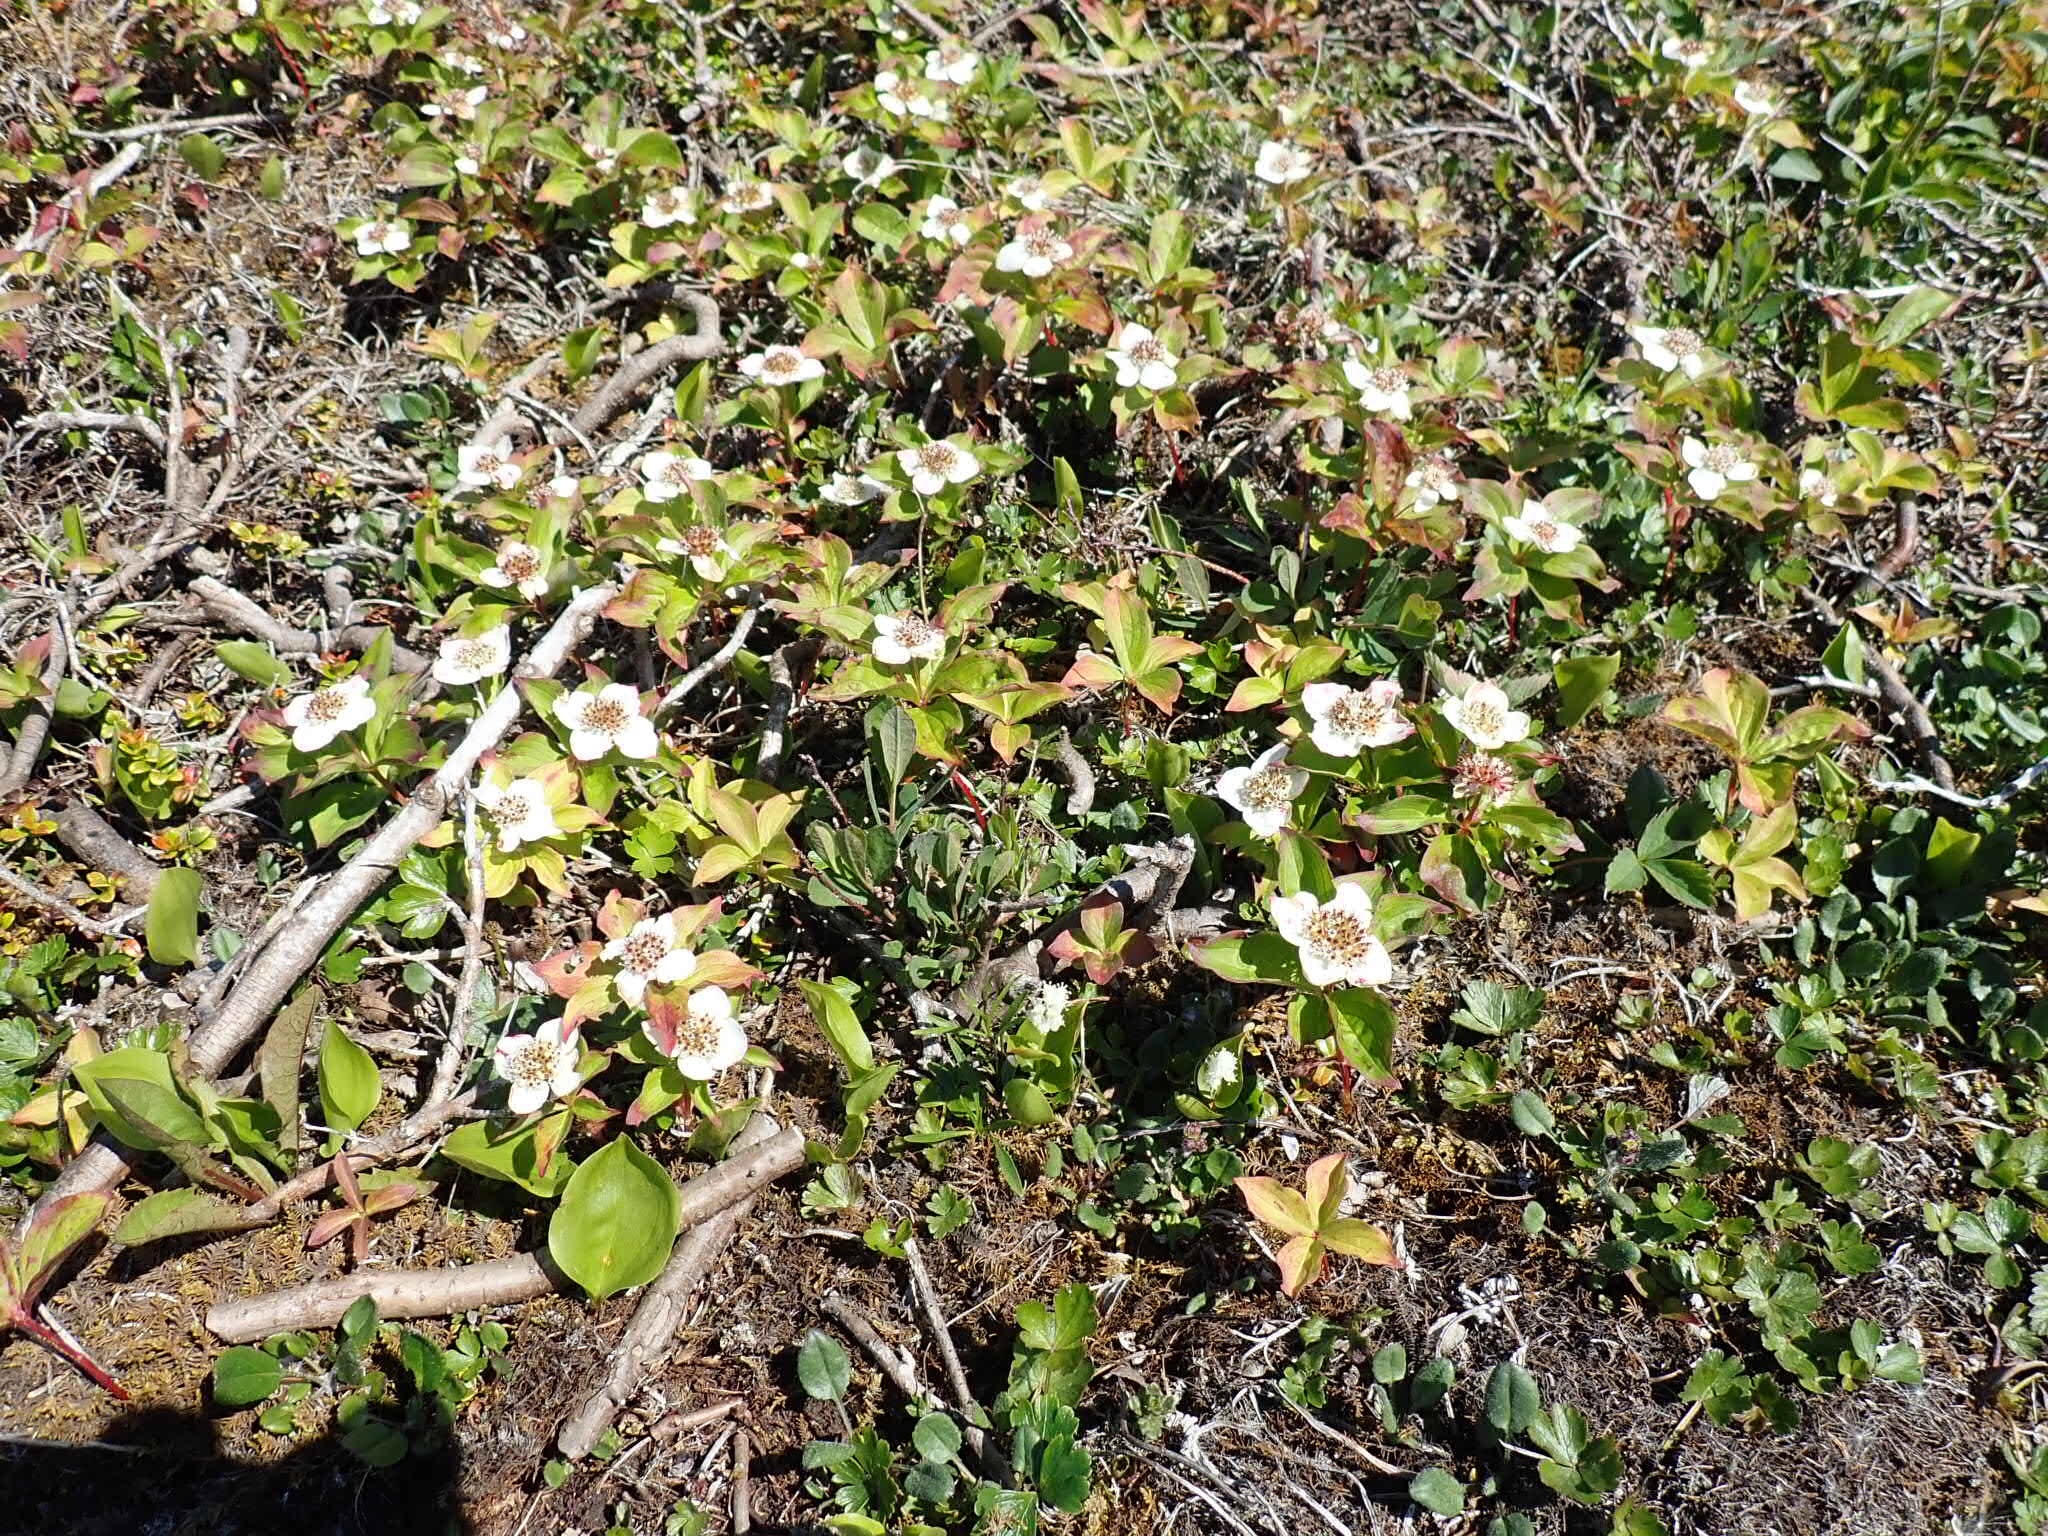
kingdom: Plantae
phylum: Tracheophyta
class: Magnoliopsida
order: Cornales
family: Cornaceae
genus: Cornus
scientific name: Cornus canadensis
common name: Creeping dogwood
